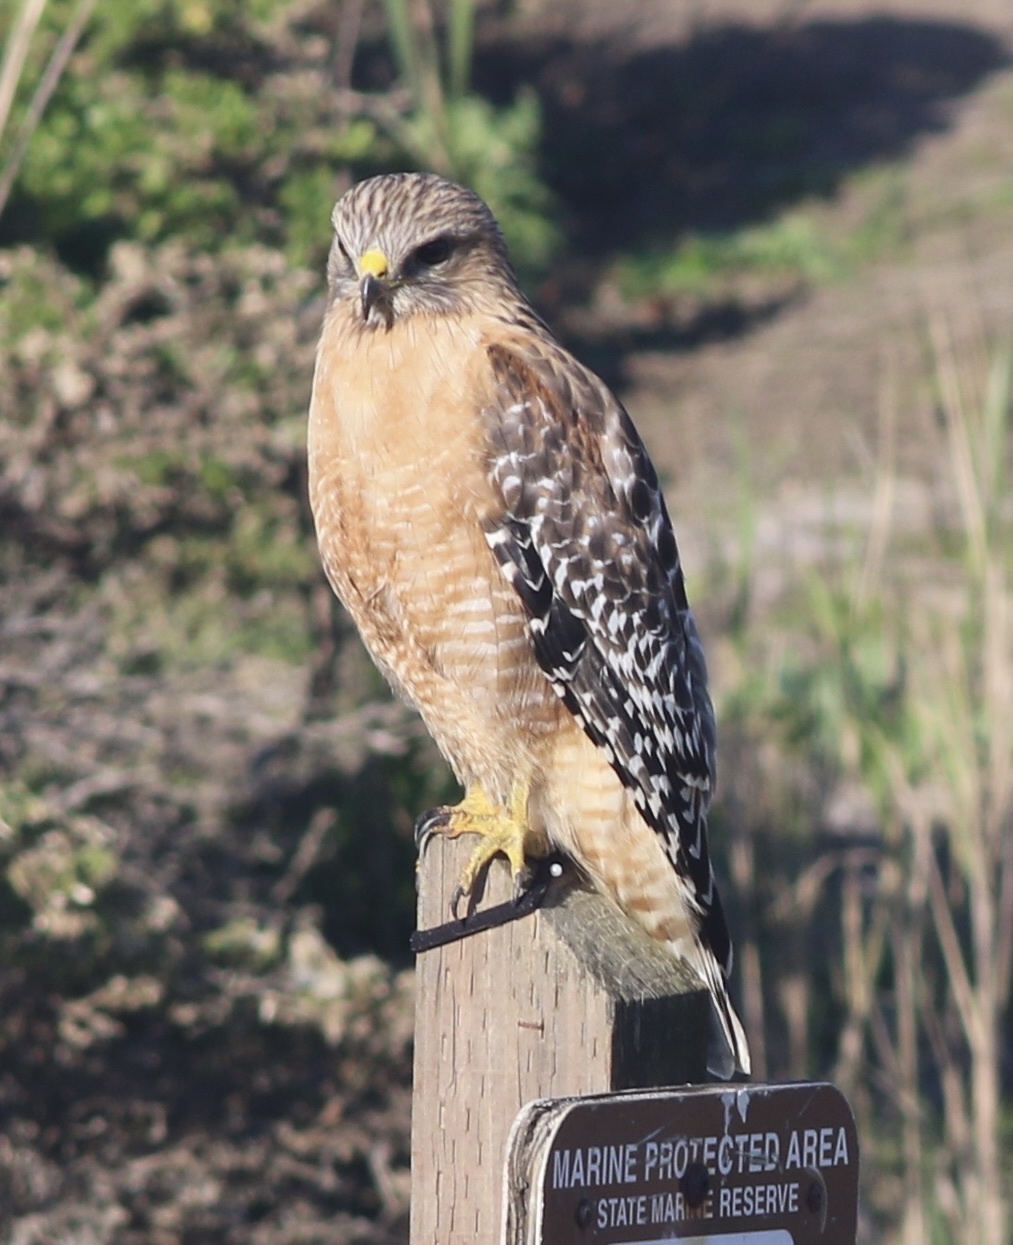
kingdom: Animalia
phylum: Chordata
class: Aves
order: Accipitriformes
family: Accipitridae
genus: Buteo
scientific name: Buteo lineatus
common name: Red-shouldered hawk
